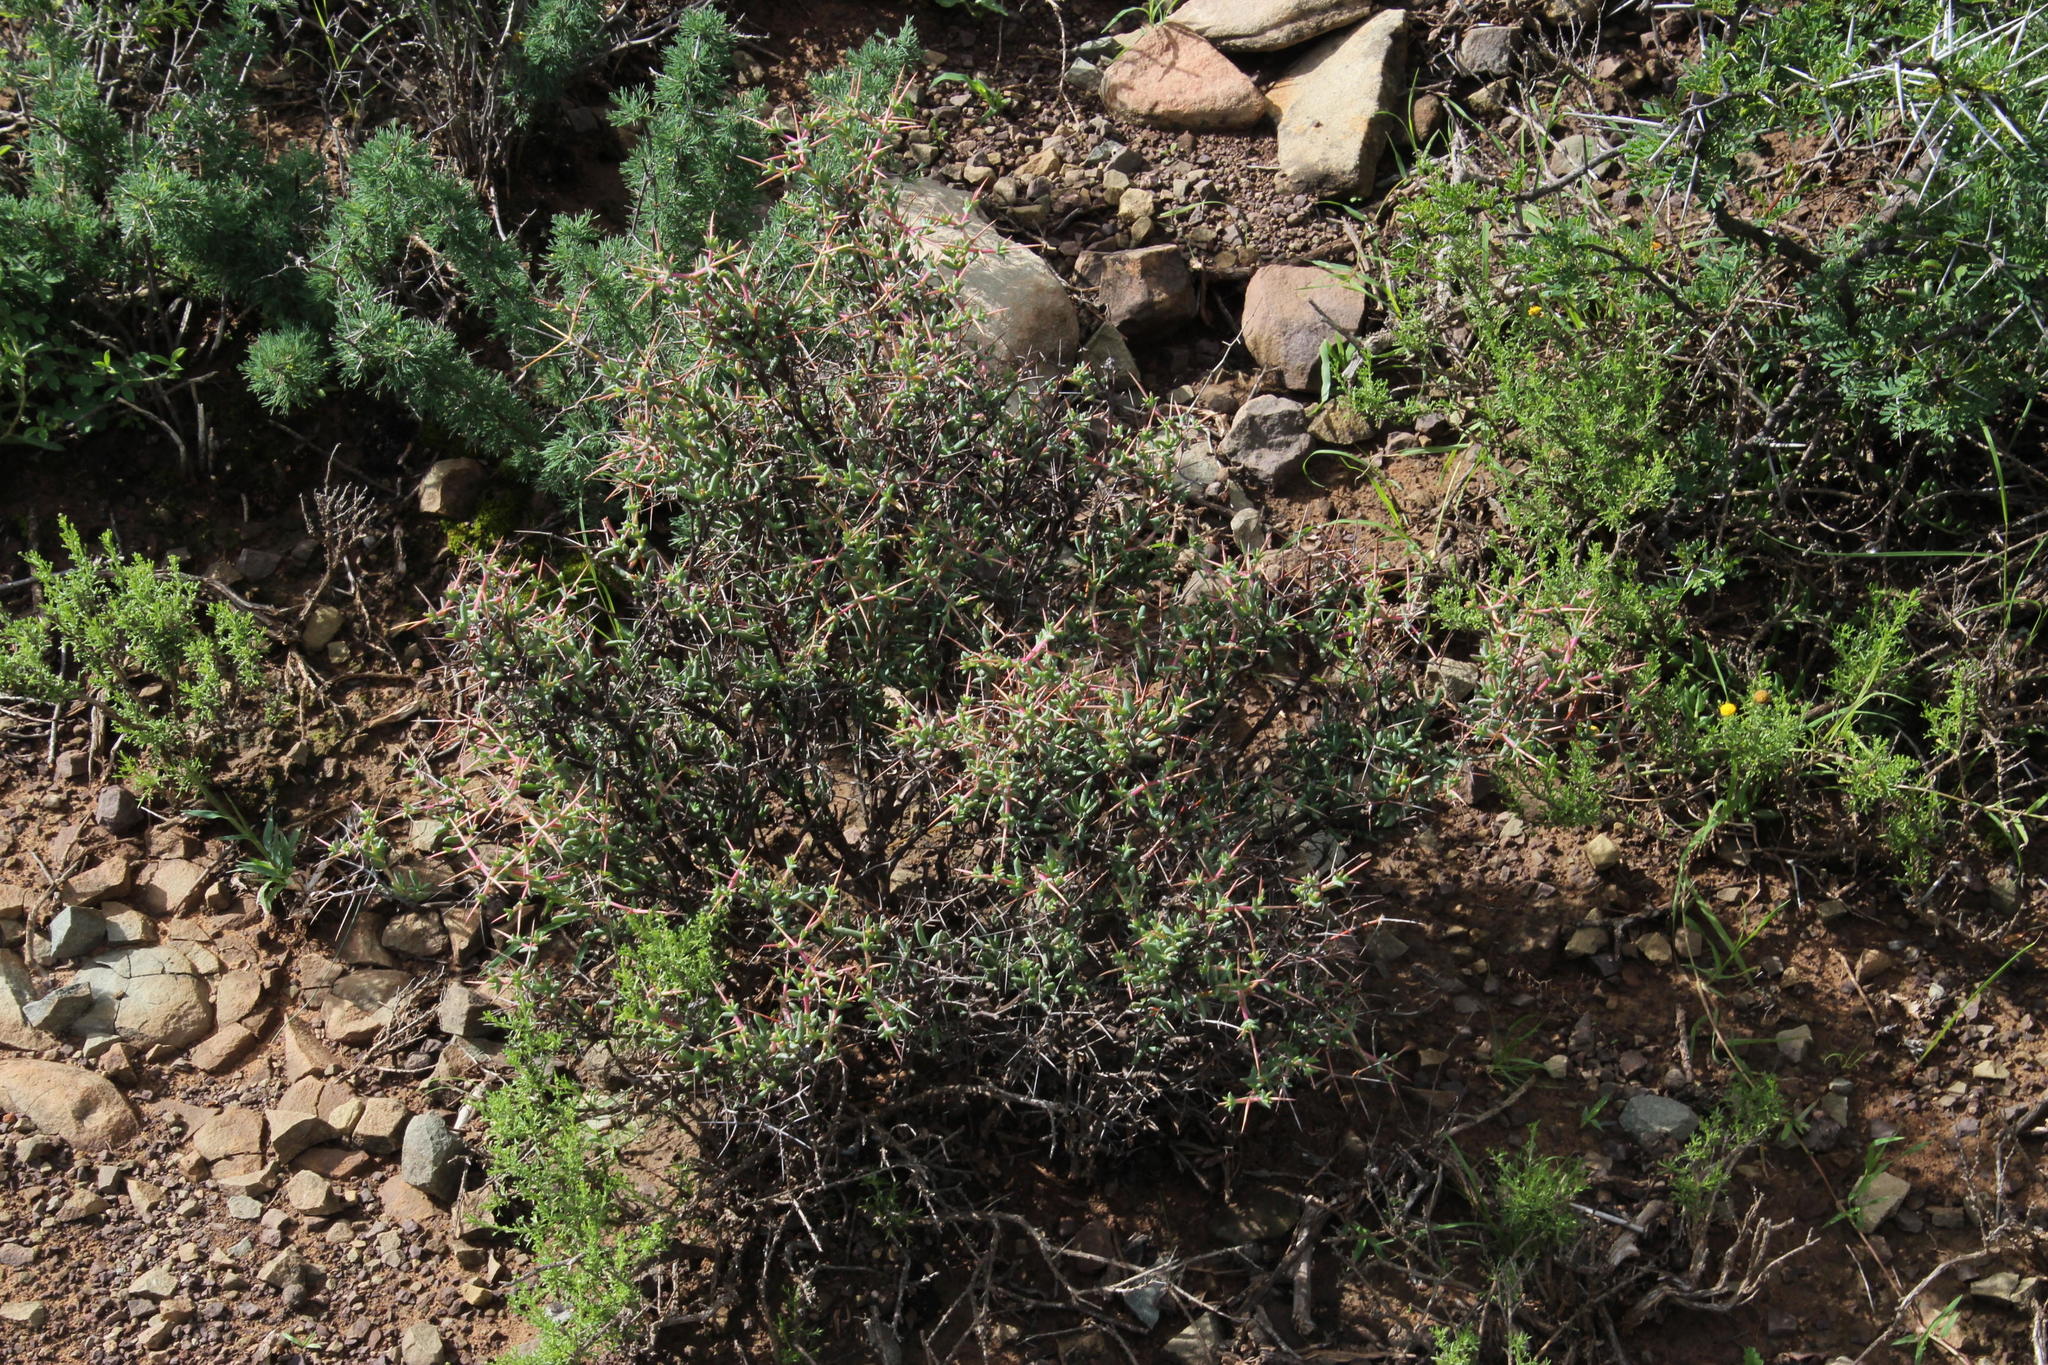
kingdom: Plantae
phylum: Tracheophyta
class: Magnoliopsida
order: Caryophyllales
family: Aizoaceae
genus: Ruschia
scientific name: Ruschia intricata
